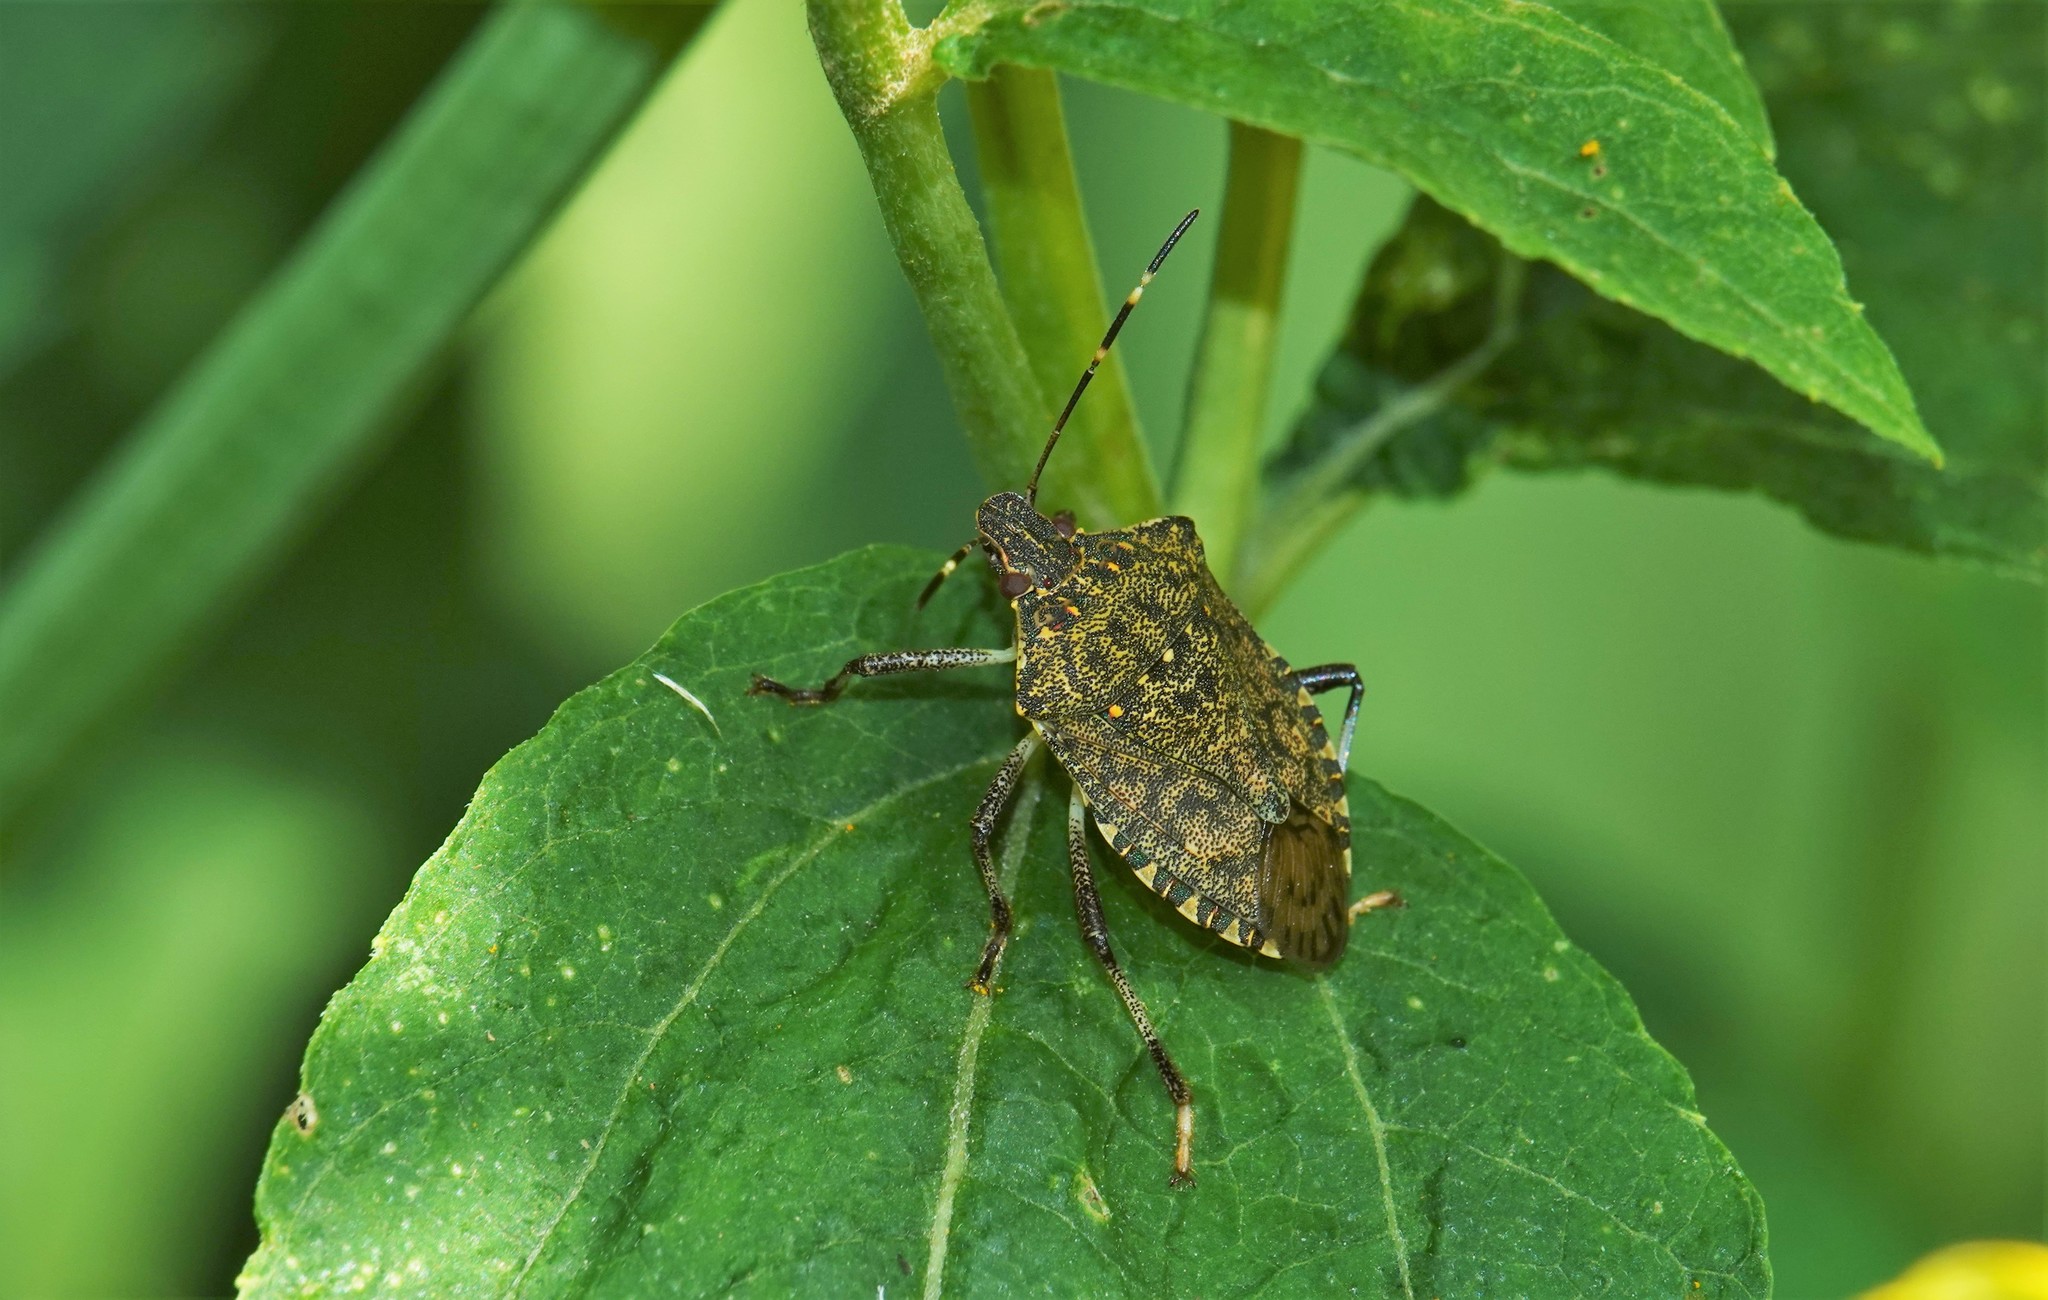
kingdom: Animalia
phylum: Arthropoda
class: Insecta
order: Hemiptera
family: Pentatomidae
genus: Halyomorpha
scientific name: Halyomorpha halys
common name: Brown marmorated stink bug
